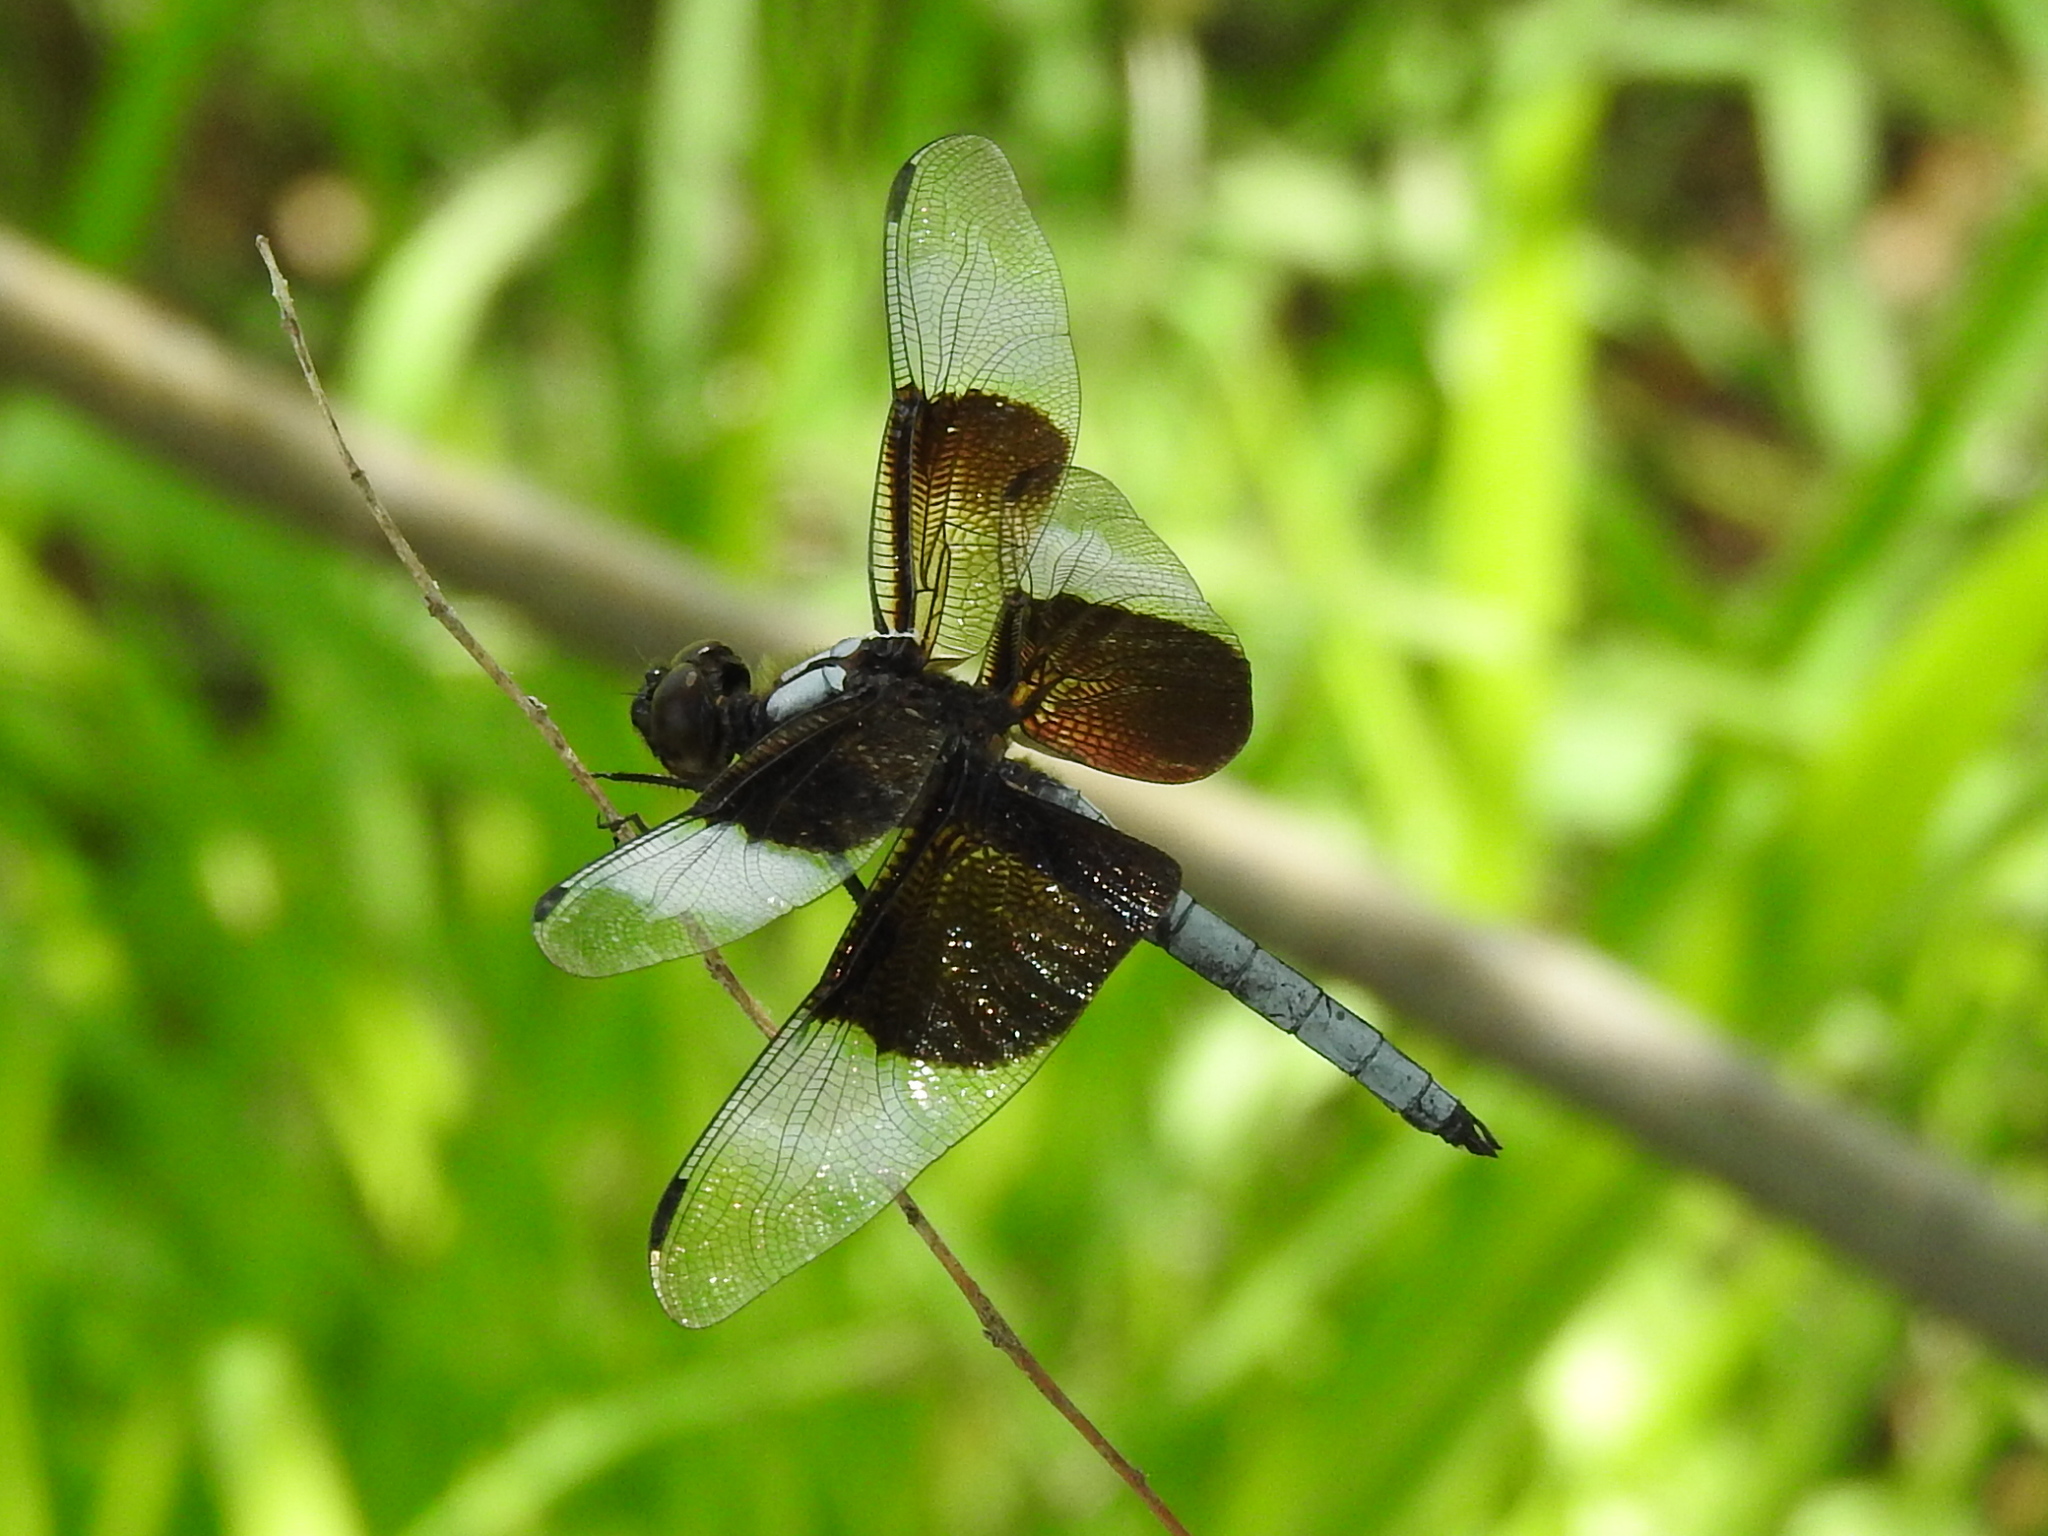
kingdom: Animalia
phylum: Arthropoda
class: Insecta
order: Odonata
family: Libellulidae
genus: Libellula
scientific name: Libellula luctuosa
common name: Widow skimmer
